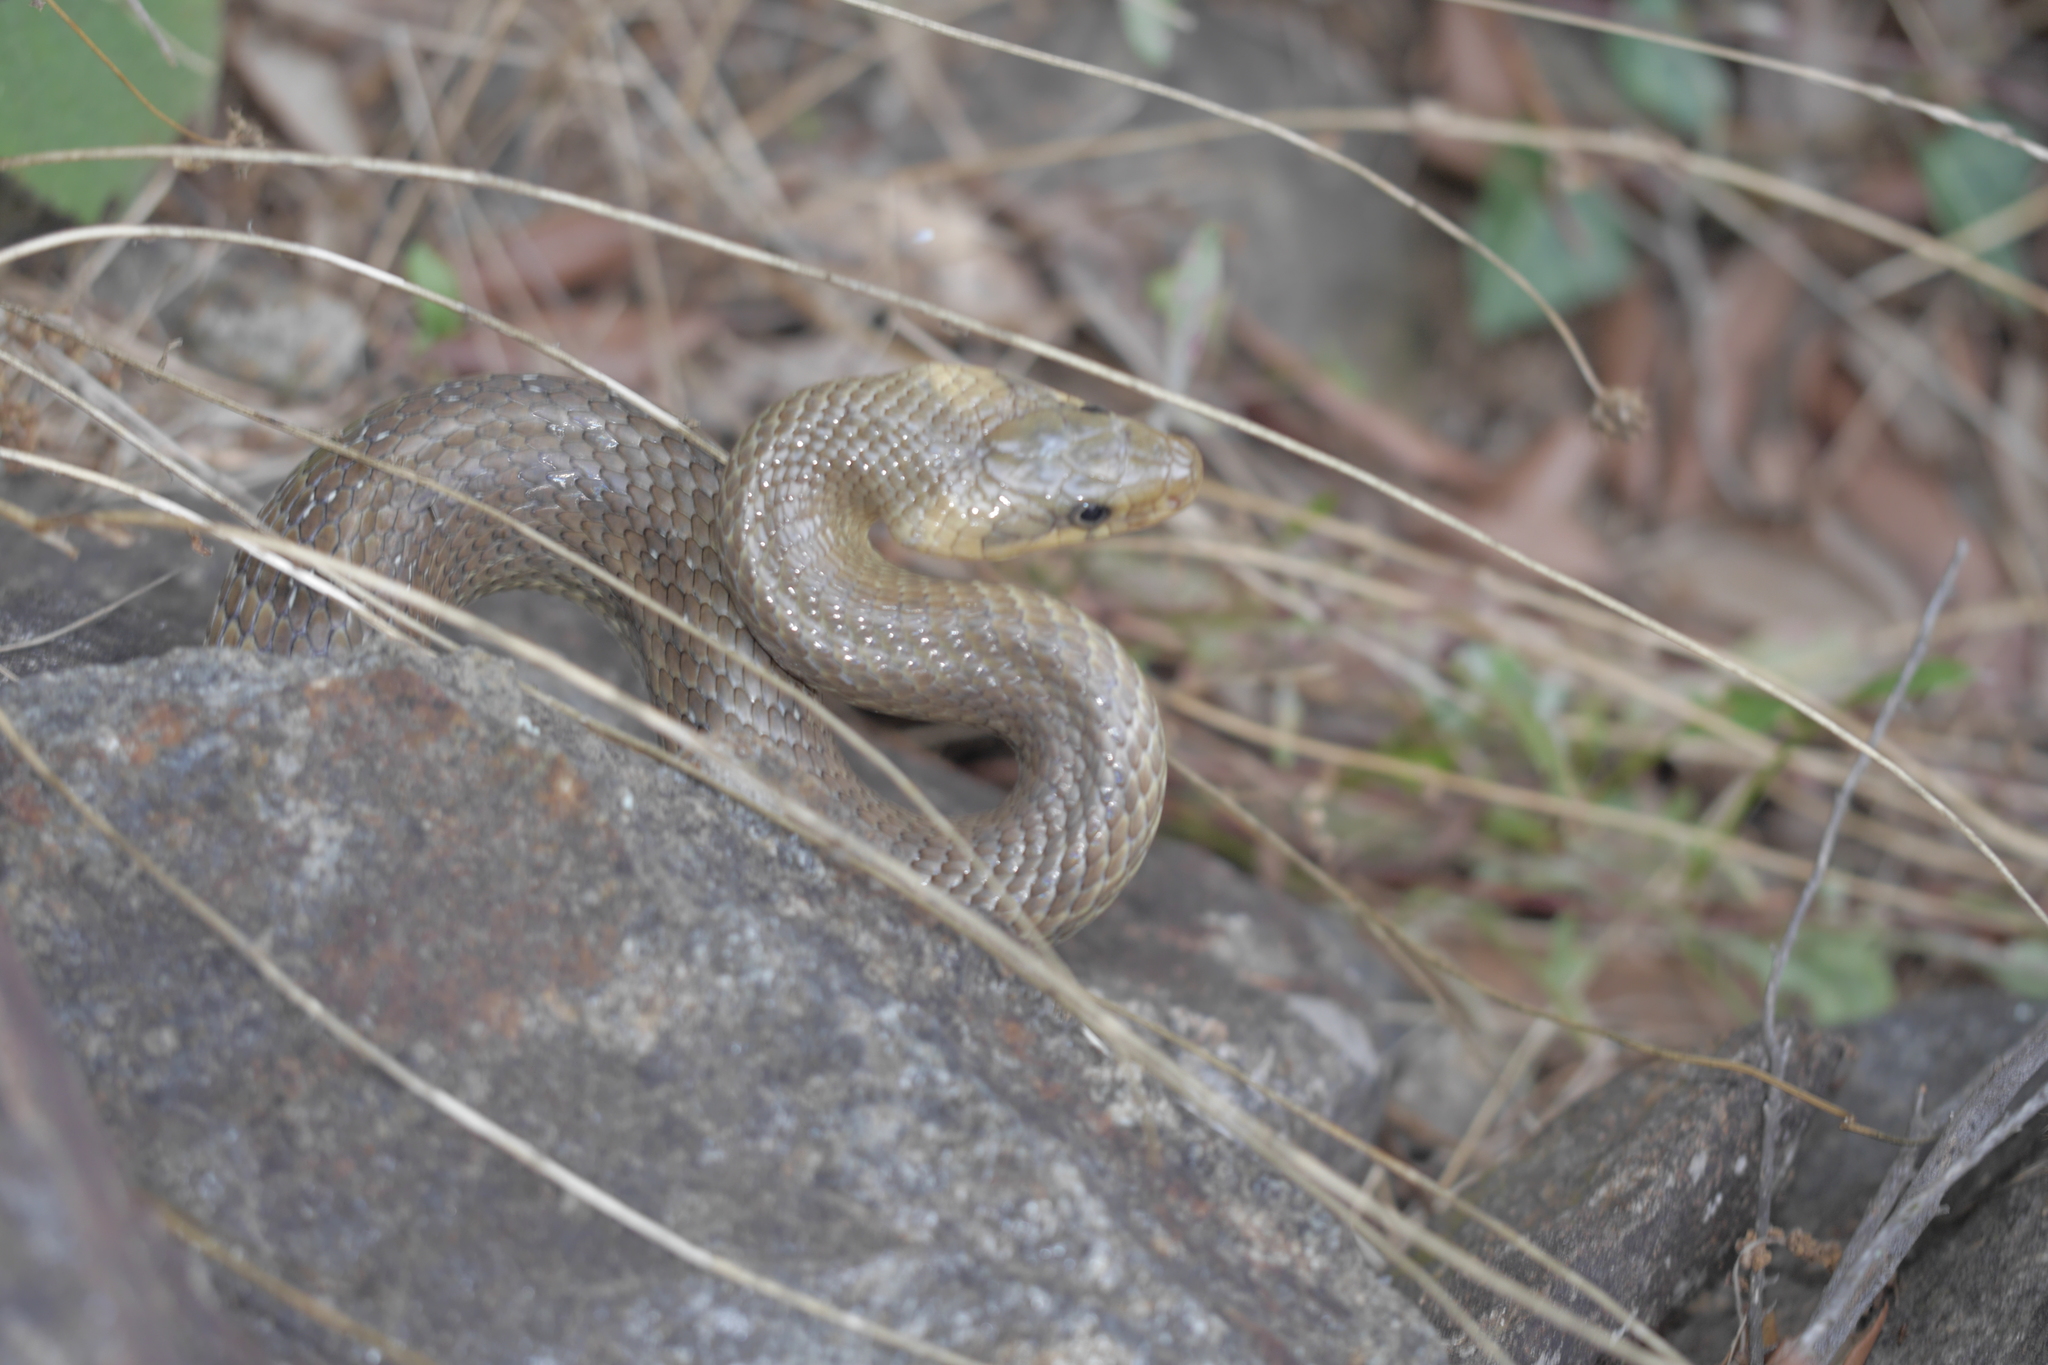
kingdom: Animalia
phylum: Chordata
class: Squamata
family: Colubridae
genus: Zamenis
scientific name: Zamenis longissimus
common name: Aesculapean snake
